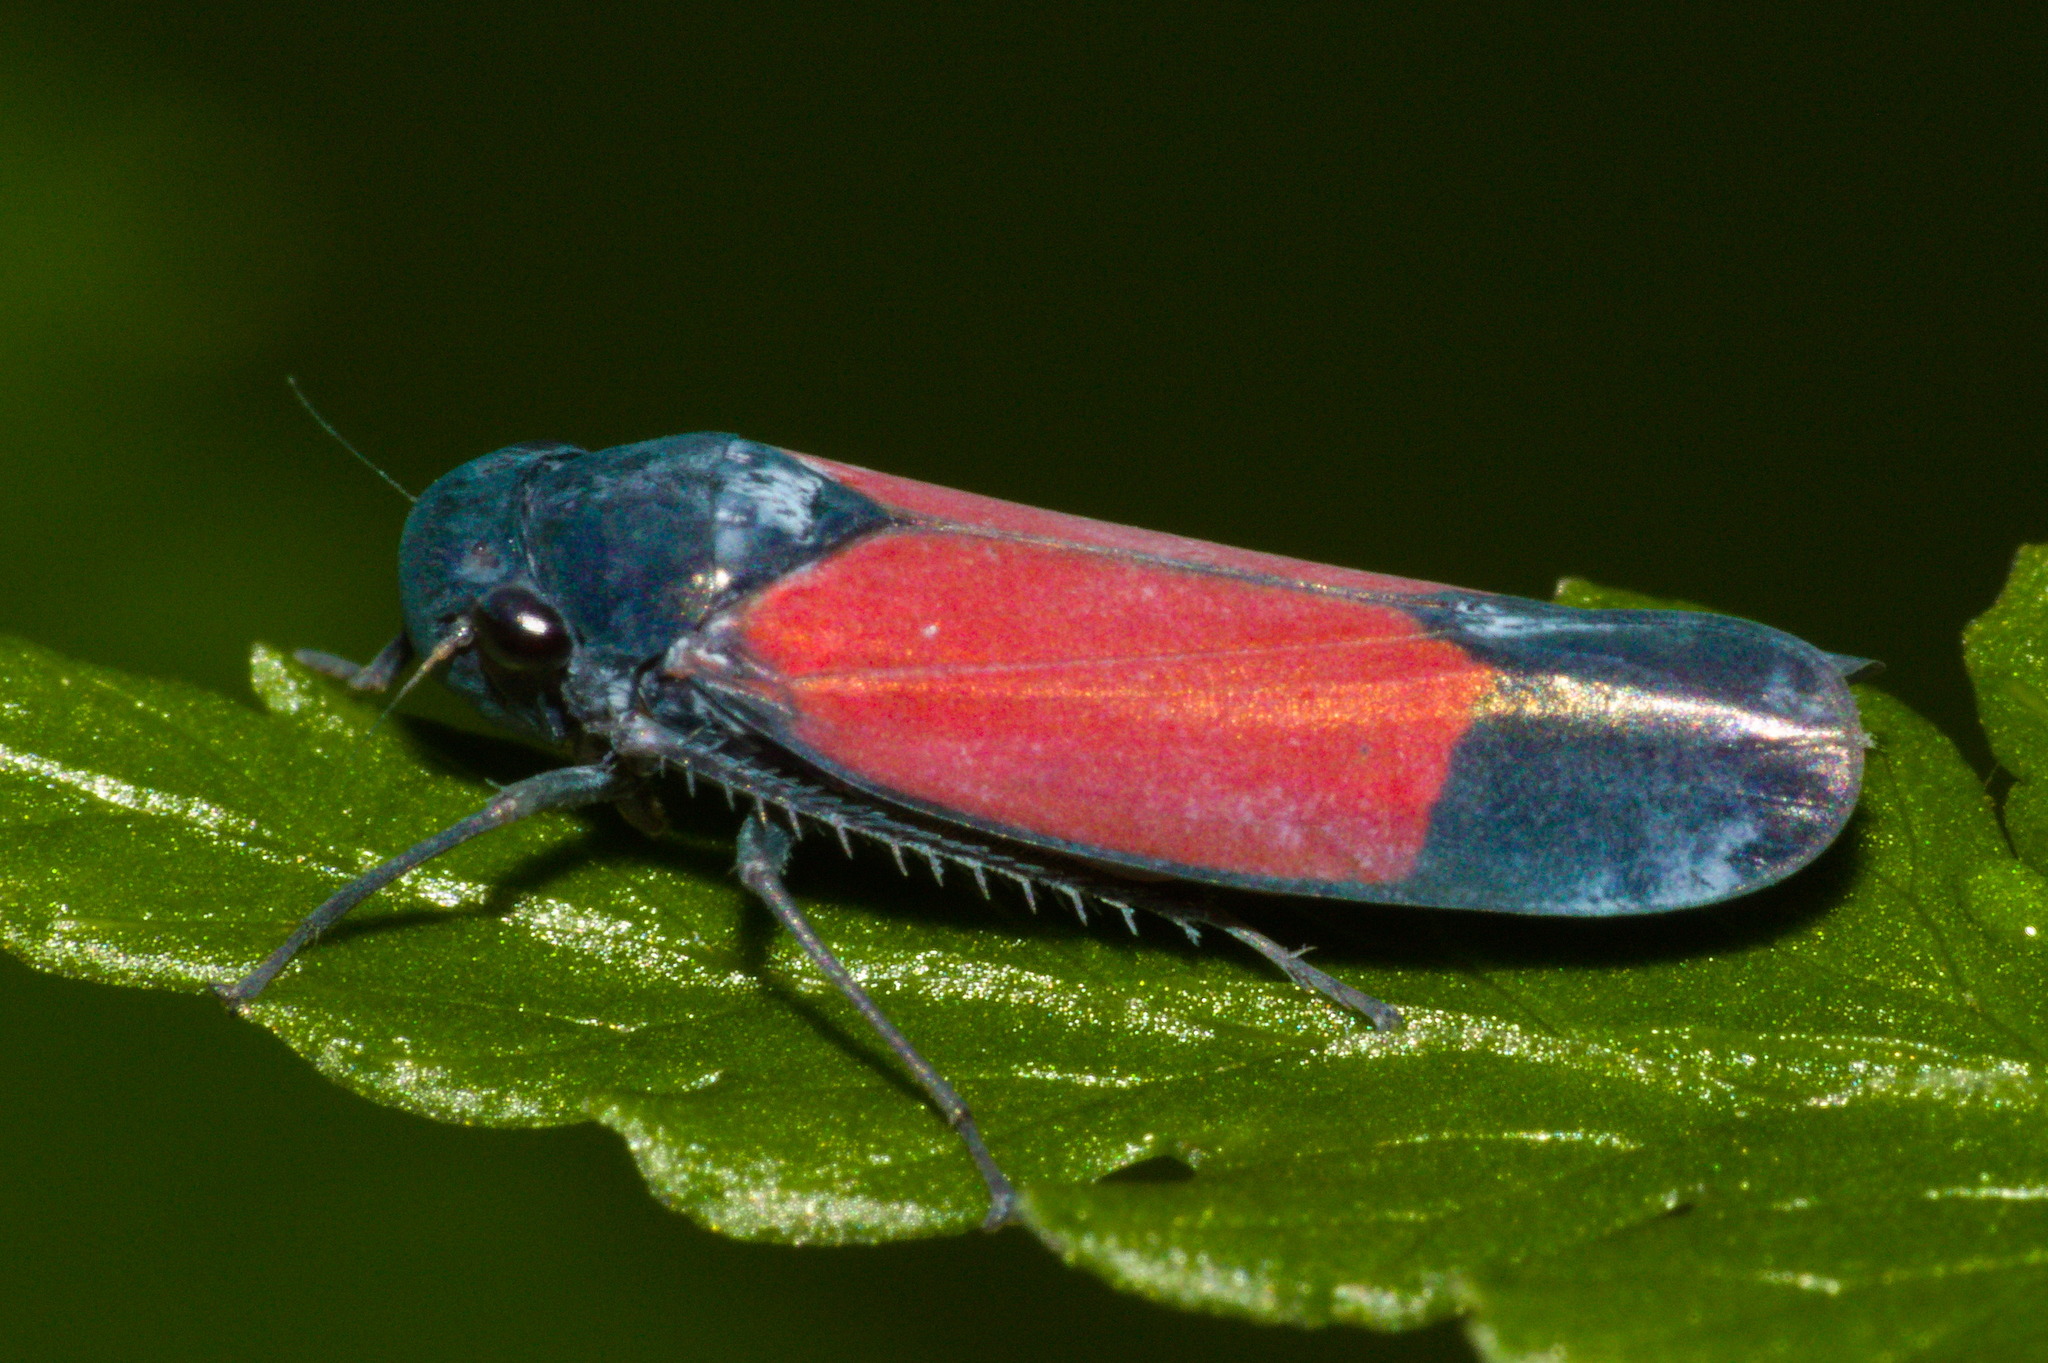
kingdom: Animalia
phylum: Arthropoda
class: Insecta
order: Hemiptera
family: Cicadellidae
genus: Cardioscarta
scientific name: Cardioscarta flavifrons
